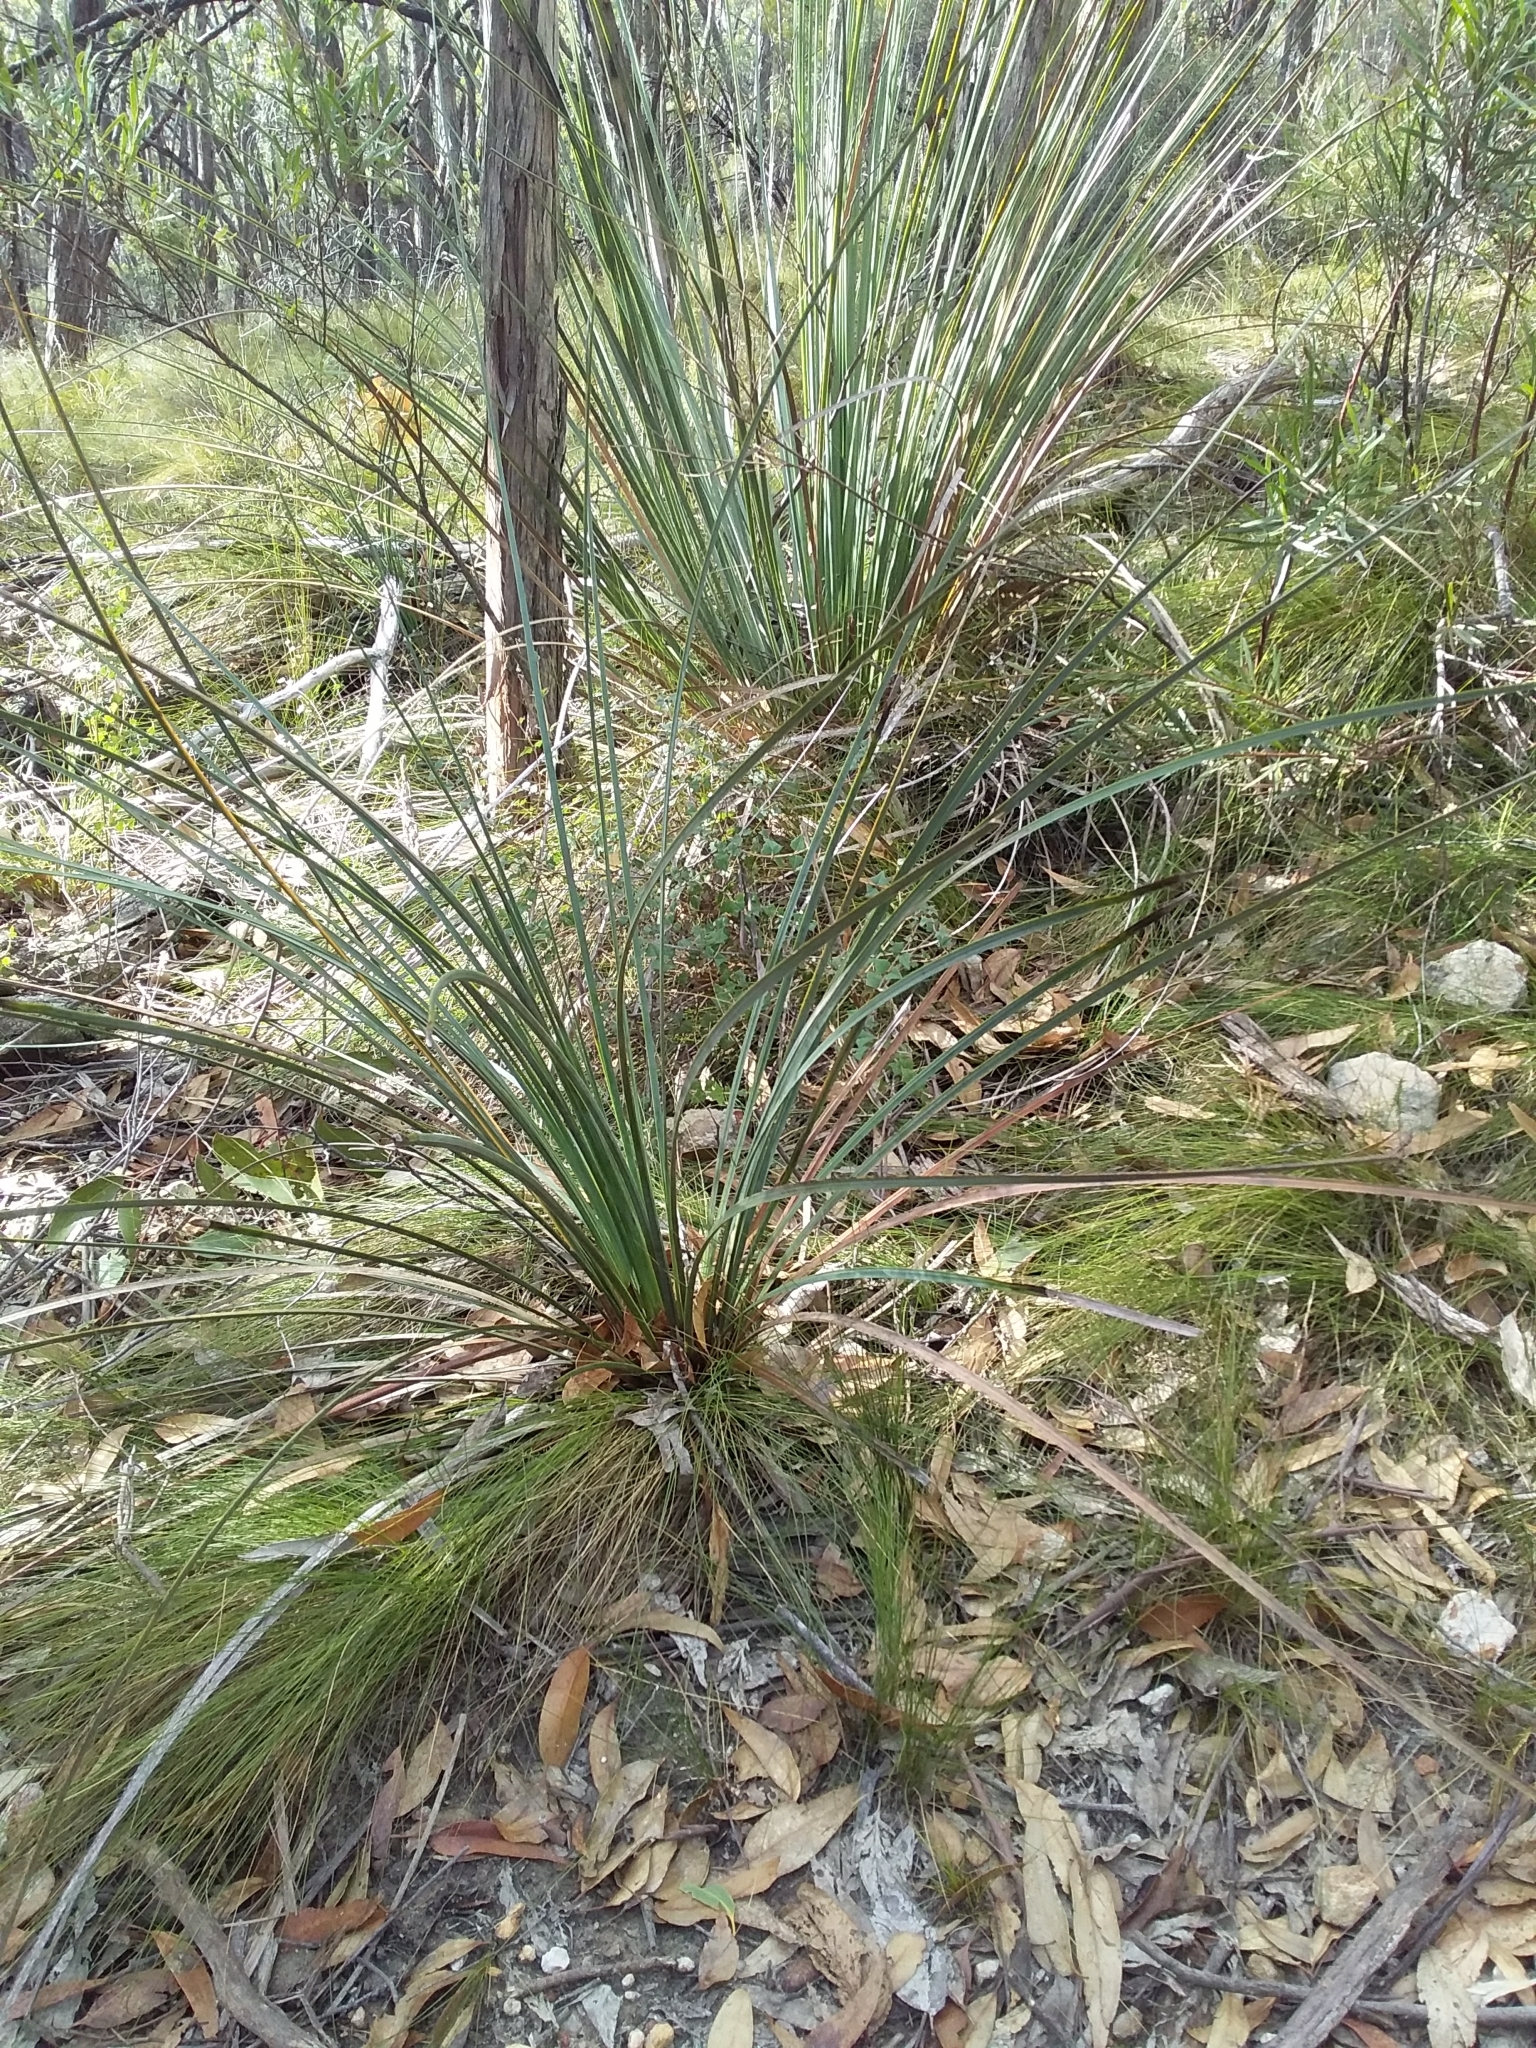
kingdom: Plantae
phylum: Tracheophyta
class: Liliopsida
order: Asparagales
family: Asphodelaceae
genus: Xanthorrhoea
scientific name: Xanthorrhoea semiplana
